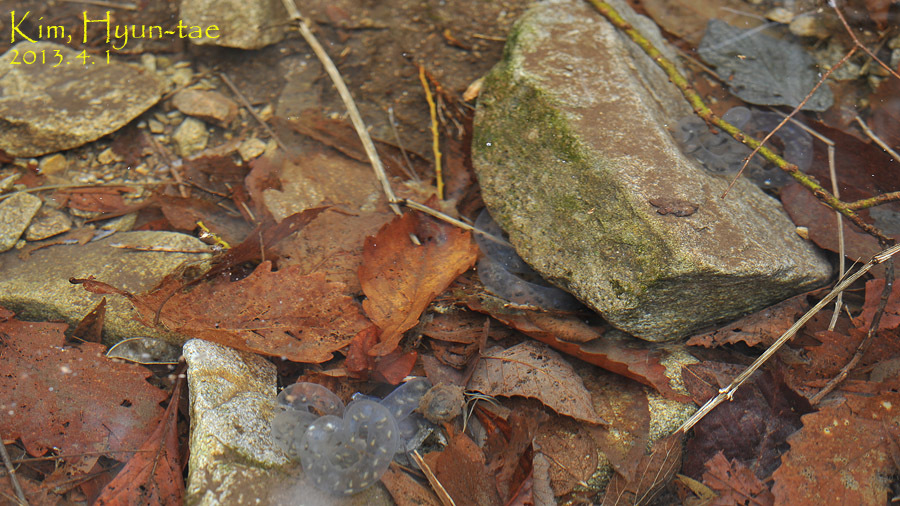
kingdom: Animalia
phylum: Chordata
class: Amphibia
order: Caudata
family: Hynobiidae
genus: Hynobius
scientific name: Hynobius leechii
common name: Gensan salamander
